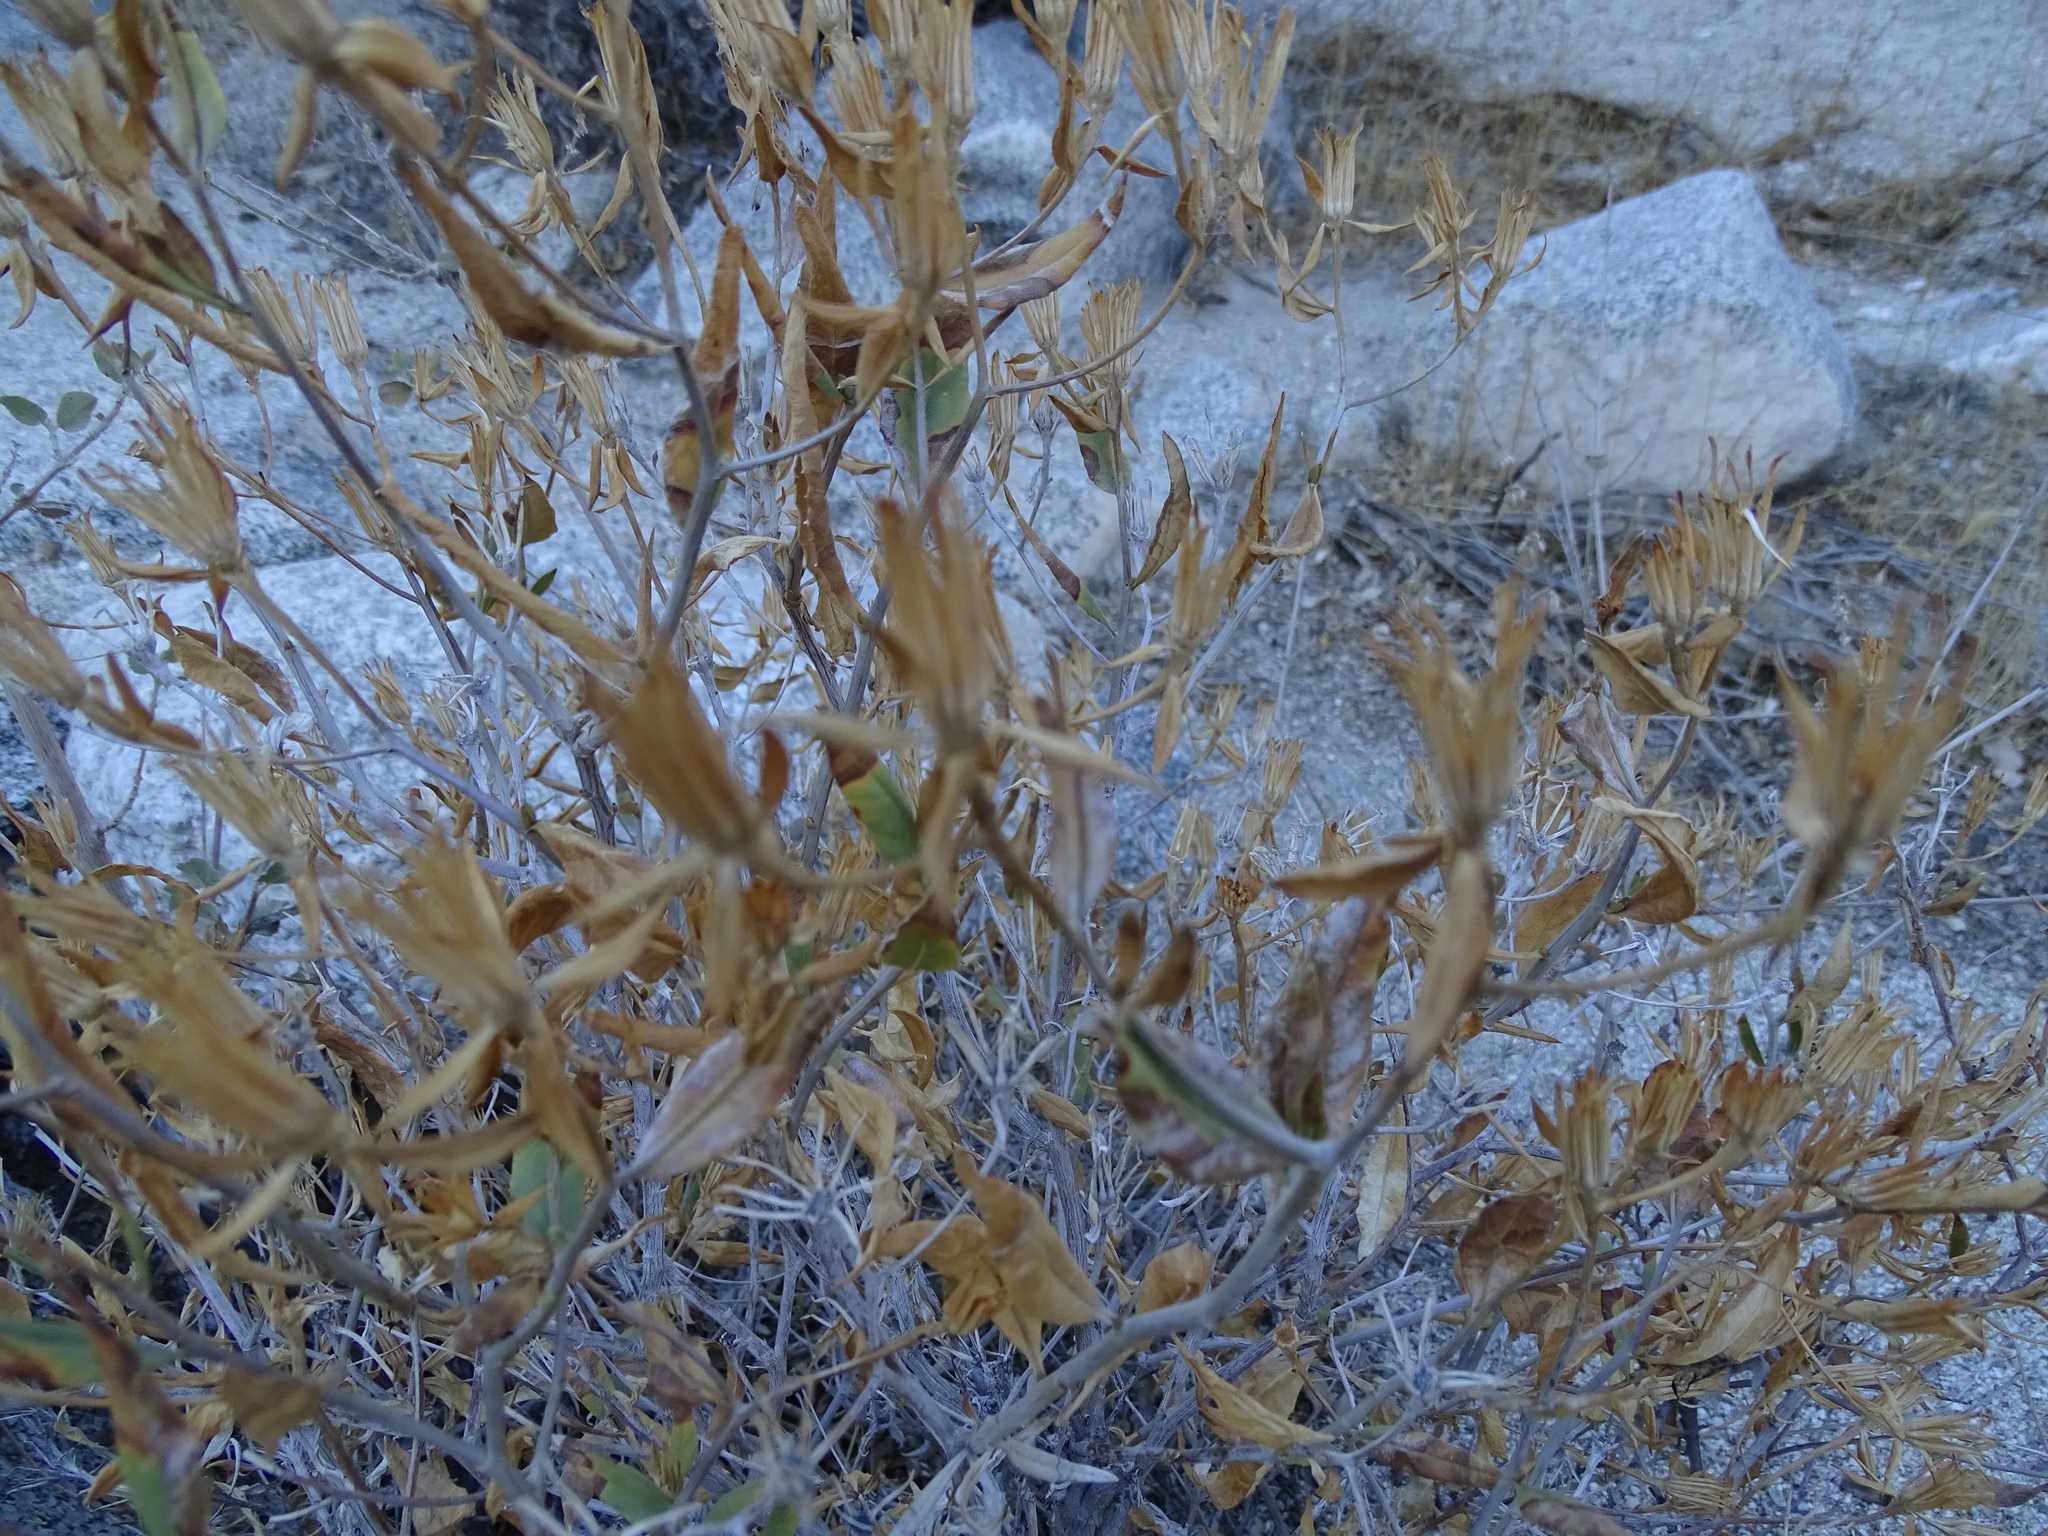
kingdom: Plantae
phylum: Tracheophyta
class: Magnoliopsida
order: Asterales
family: Asteraceae
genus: Trixis
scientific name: Trixis californica
